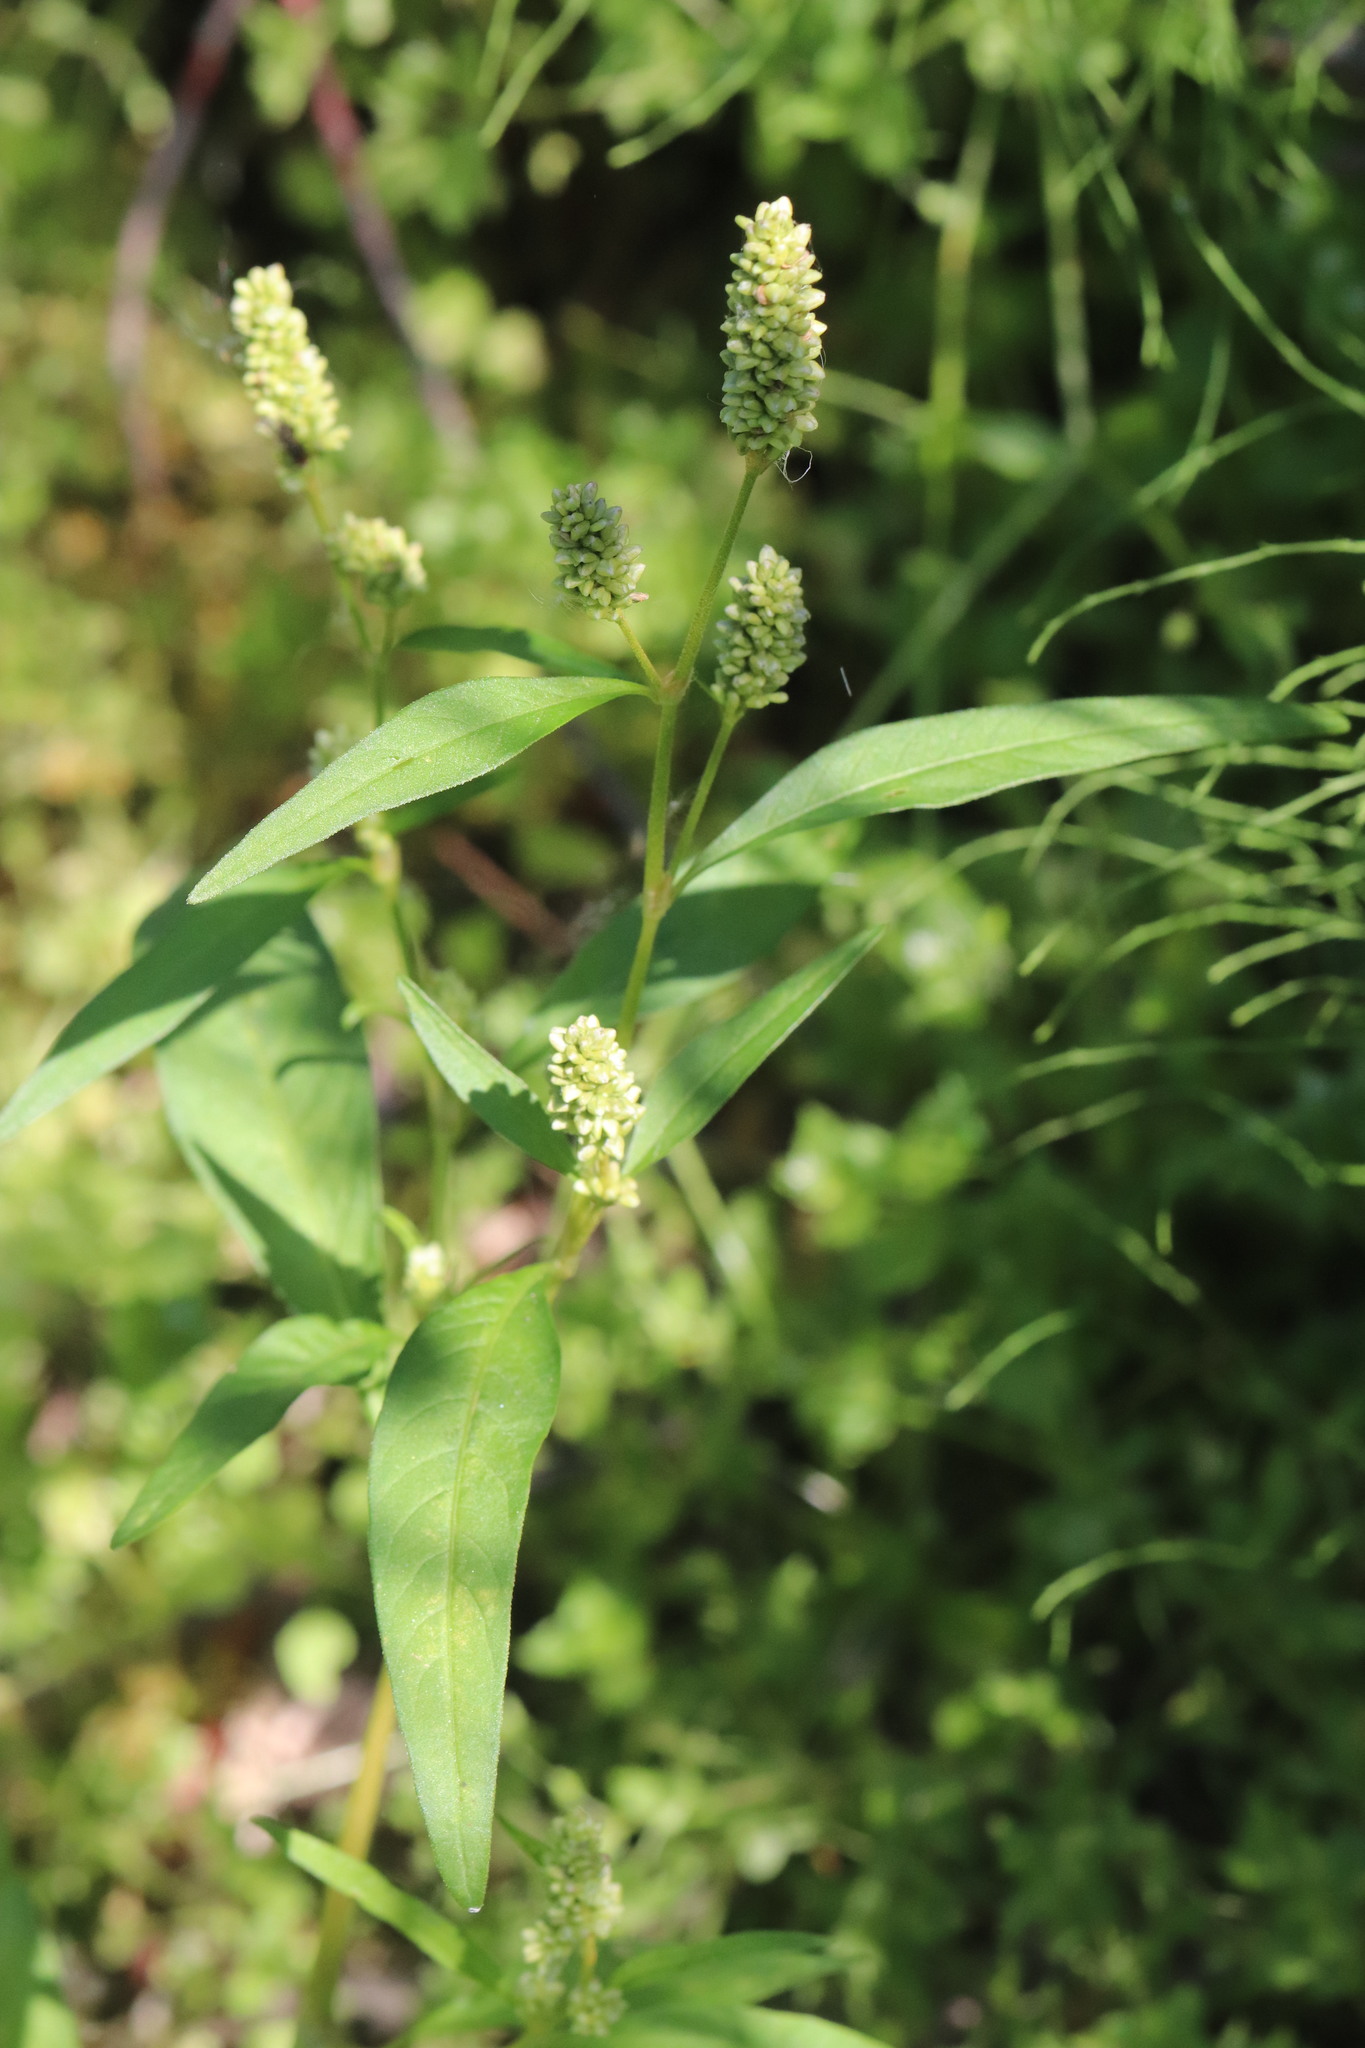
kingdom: Plantae
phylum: Tracheophyta
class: Magnoliopsida
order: Caryophyllales
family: Polygonaceae
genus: Persicaria
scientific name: Persicaria lapathifolia
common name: Curlytop knotweed
